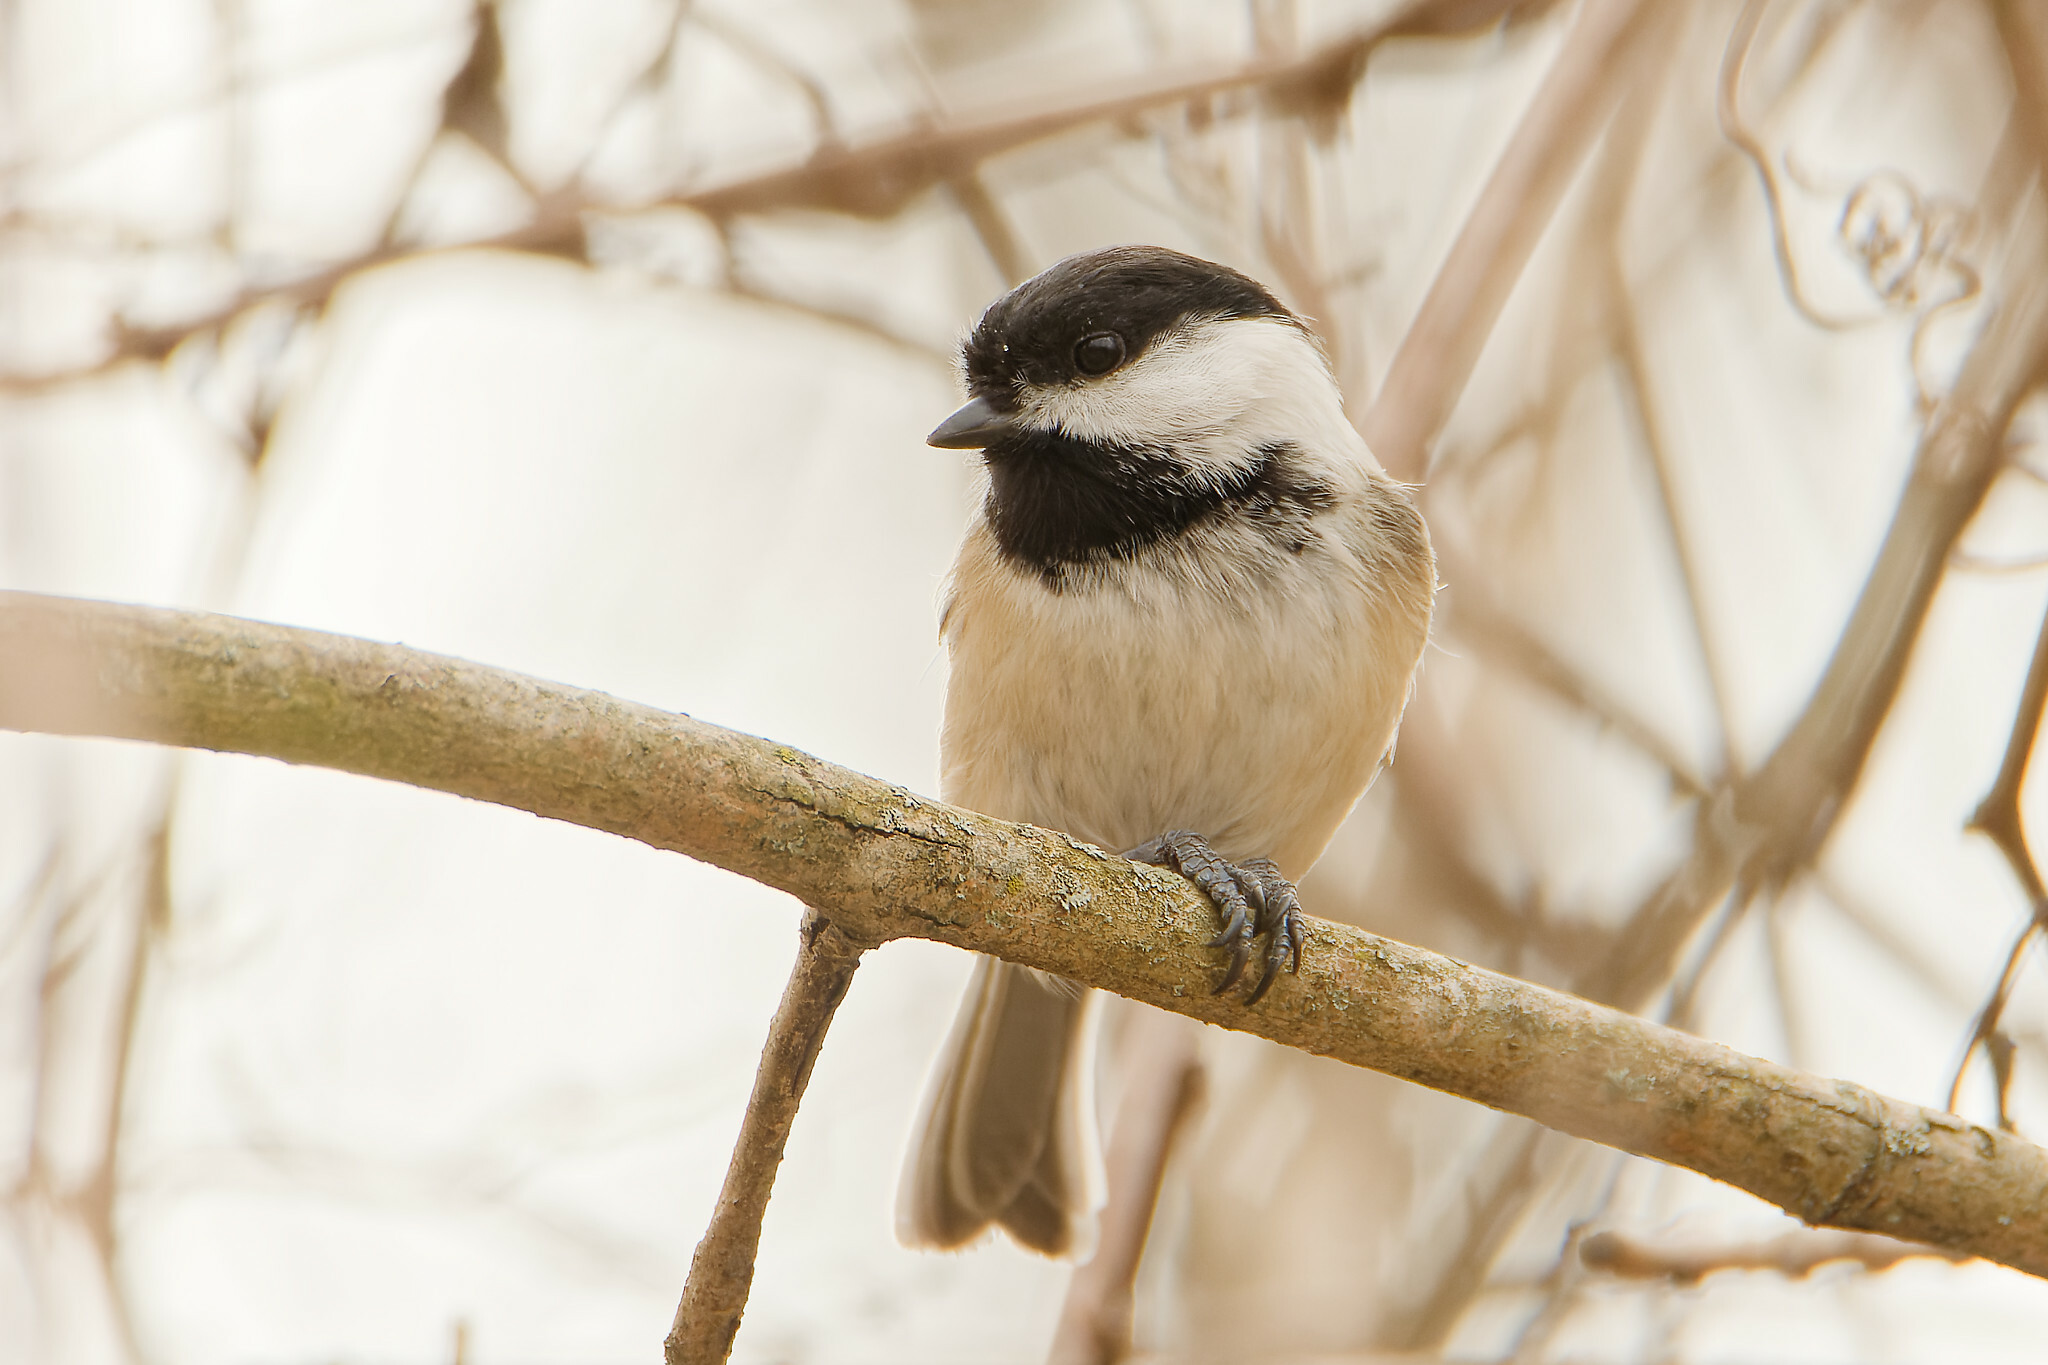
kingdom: Animalia
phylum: Chordata
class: Aves
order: Passeriformes
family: Paridae
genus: Poecile
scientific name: Poecile atricapillus
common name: Black-capped chickadee
